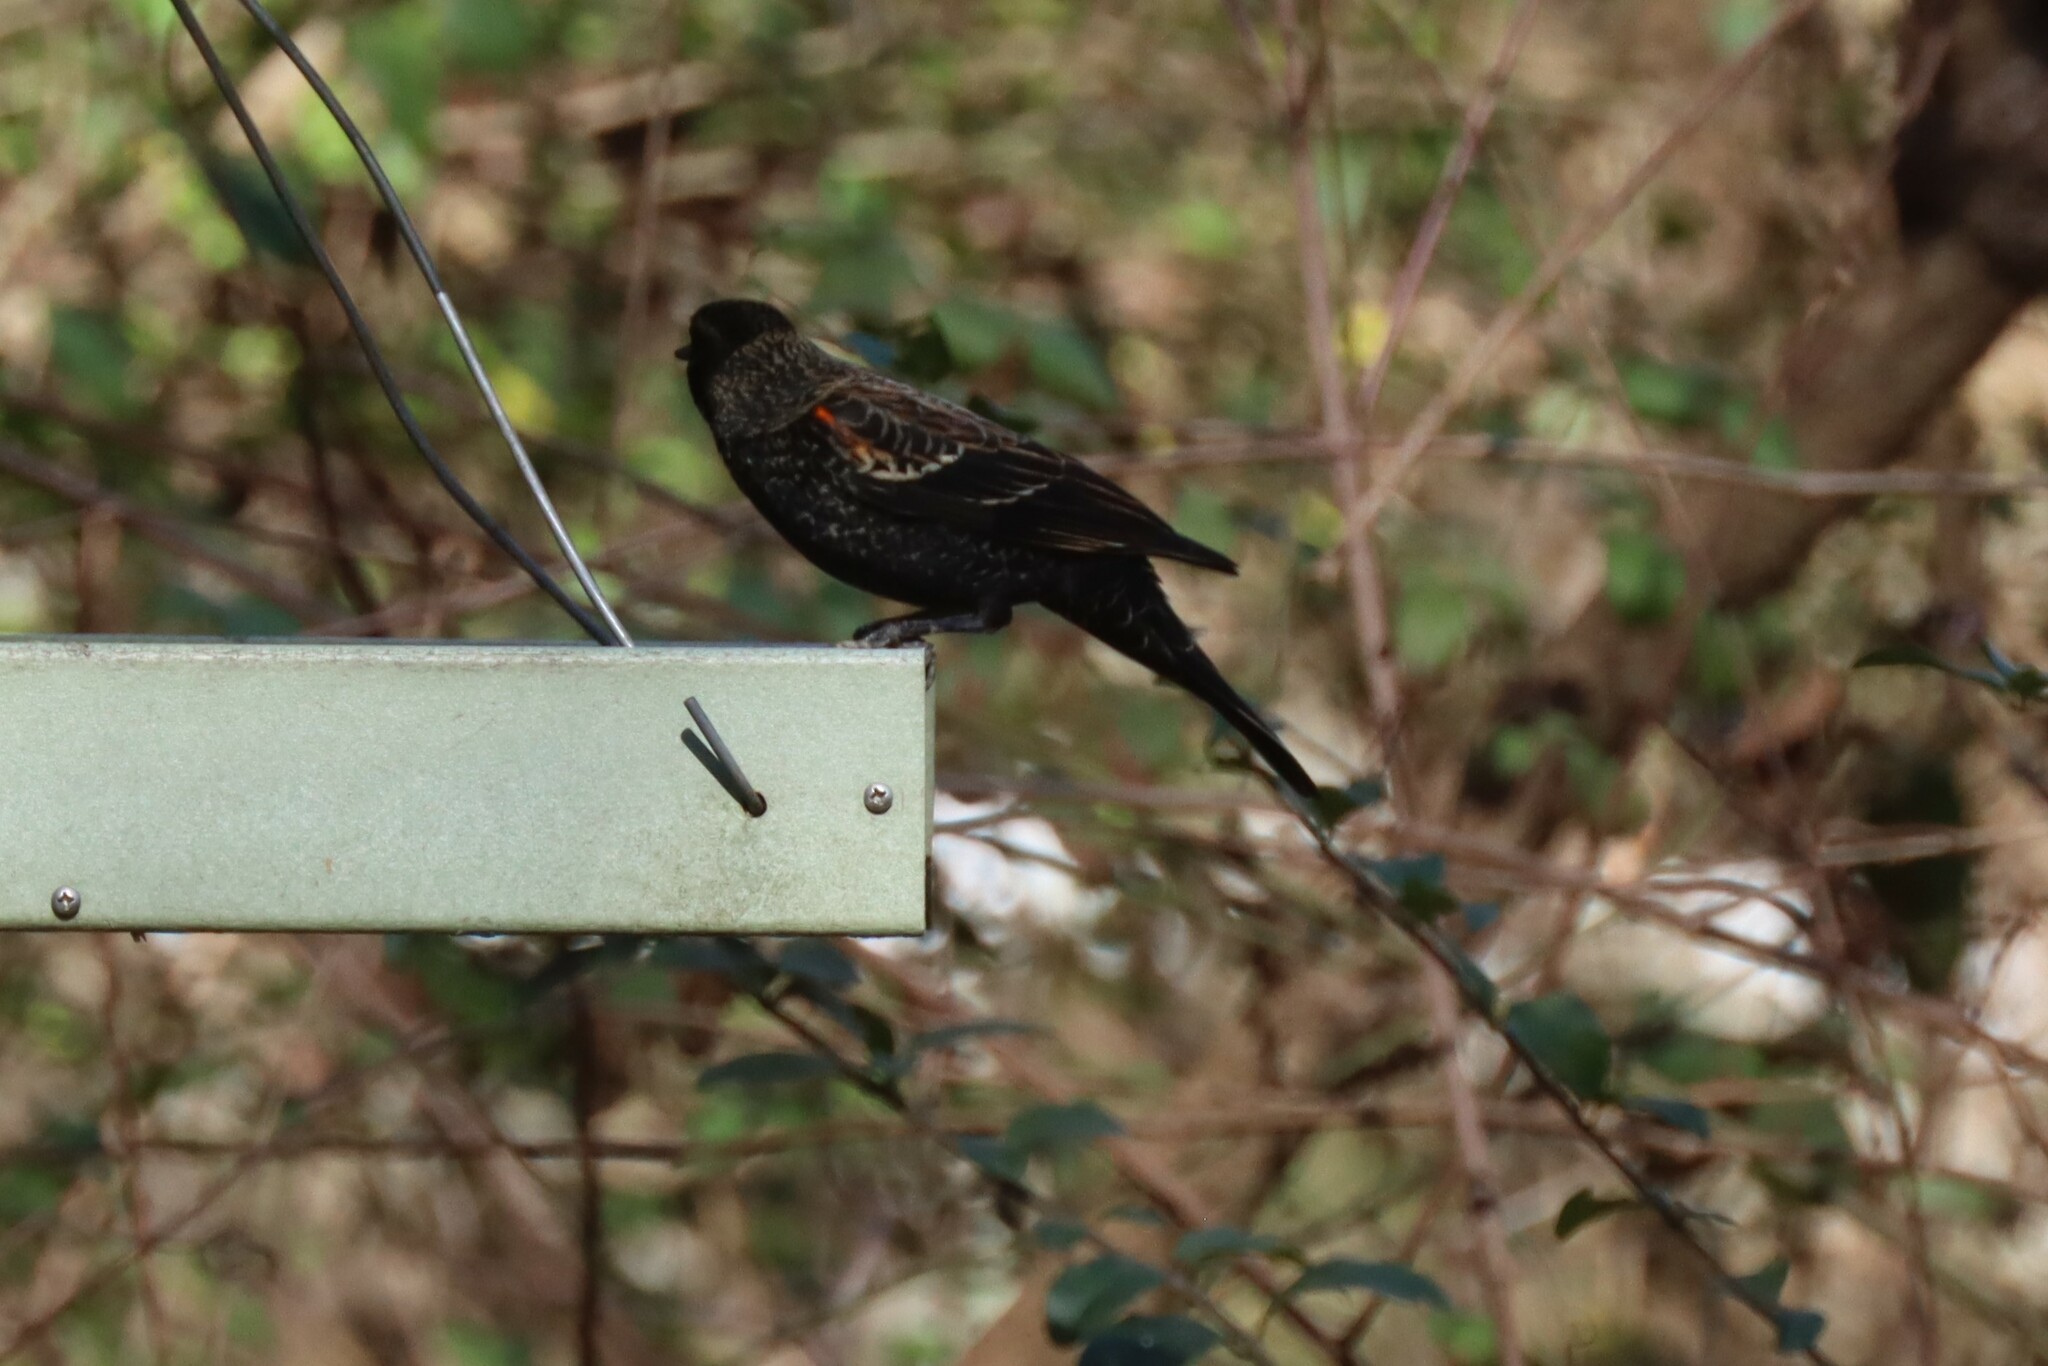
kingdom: Animalia
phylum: Chordata
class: Aves
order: Passeriformes
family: Icteridae
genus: Agelaius
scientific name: Agelaius phoeniceus
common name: Red-winged blackbird
